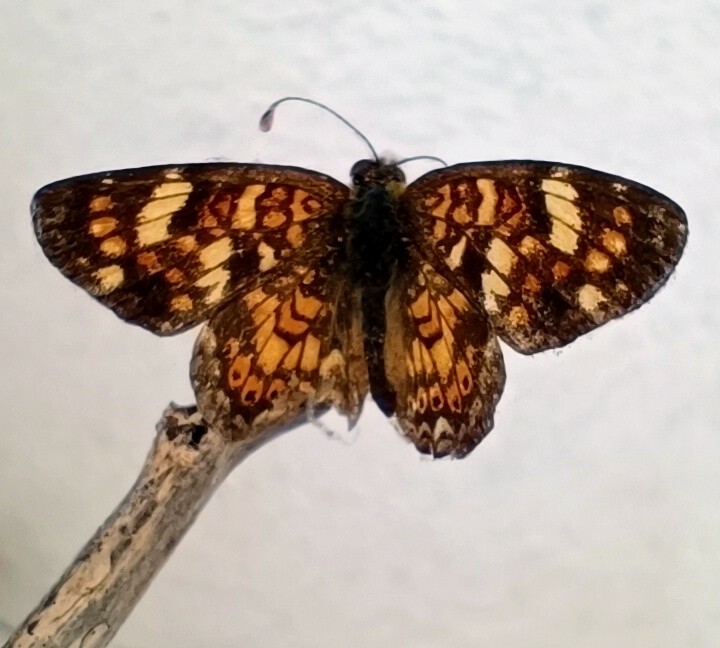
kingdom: Animalia
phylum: Arthropoda
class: Insecta
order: Lepidoptera
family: Nymphalidae
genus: Phyciodes
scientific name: Phyciodes picta
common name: Painted crescent
